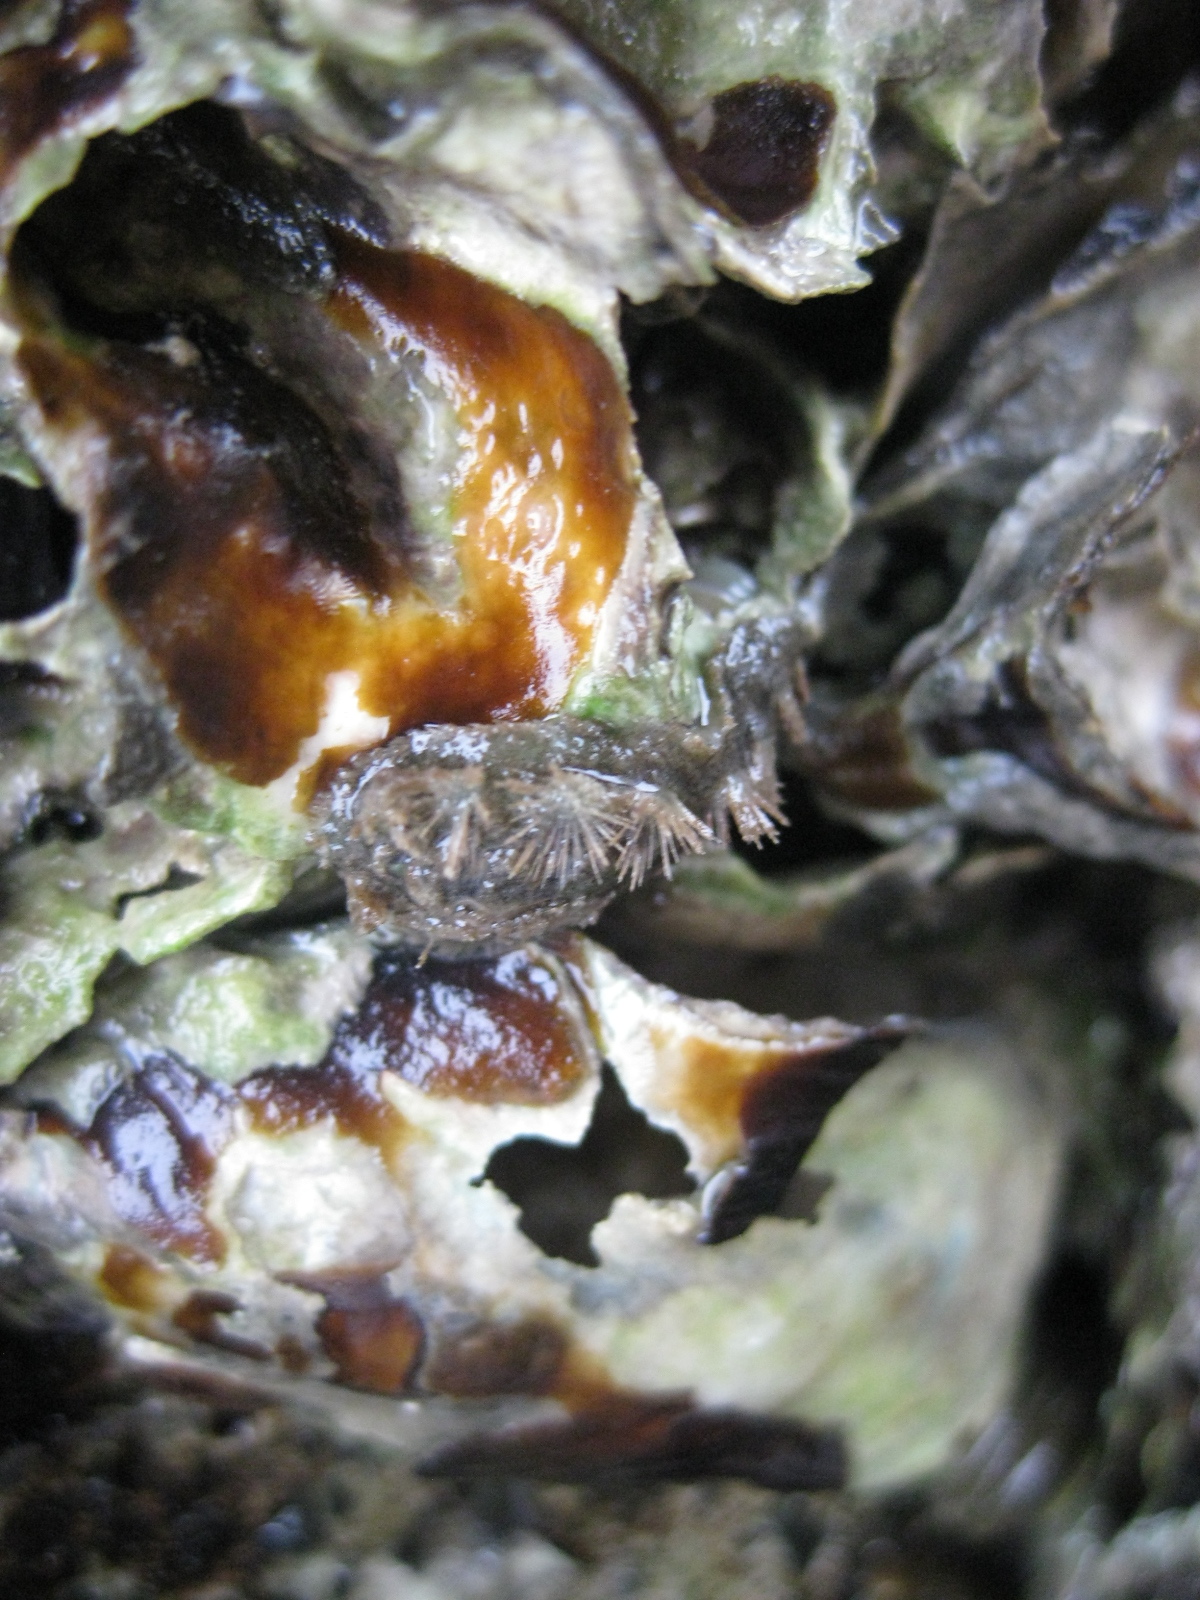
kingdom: Animalia
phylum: Mollusca
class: Polyplacophora
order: Chitonida
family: Acanthochitonidae
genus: Acanthochitona
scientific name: Acanthochitona zelandica
